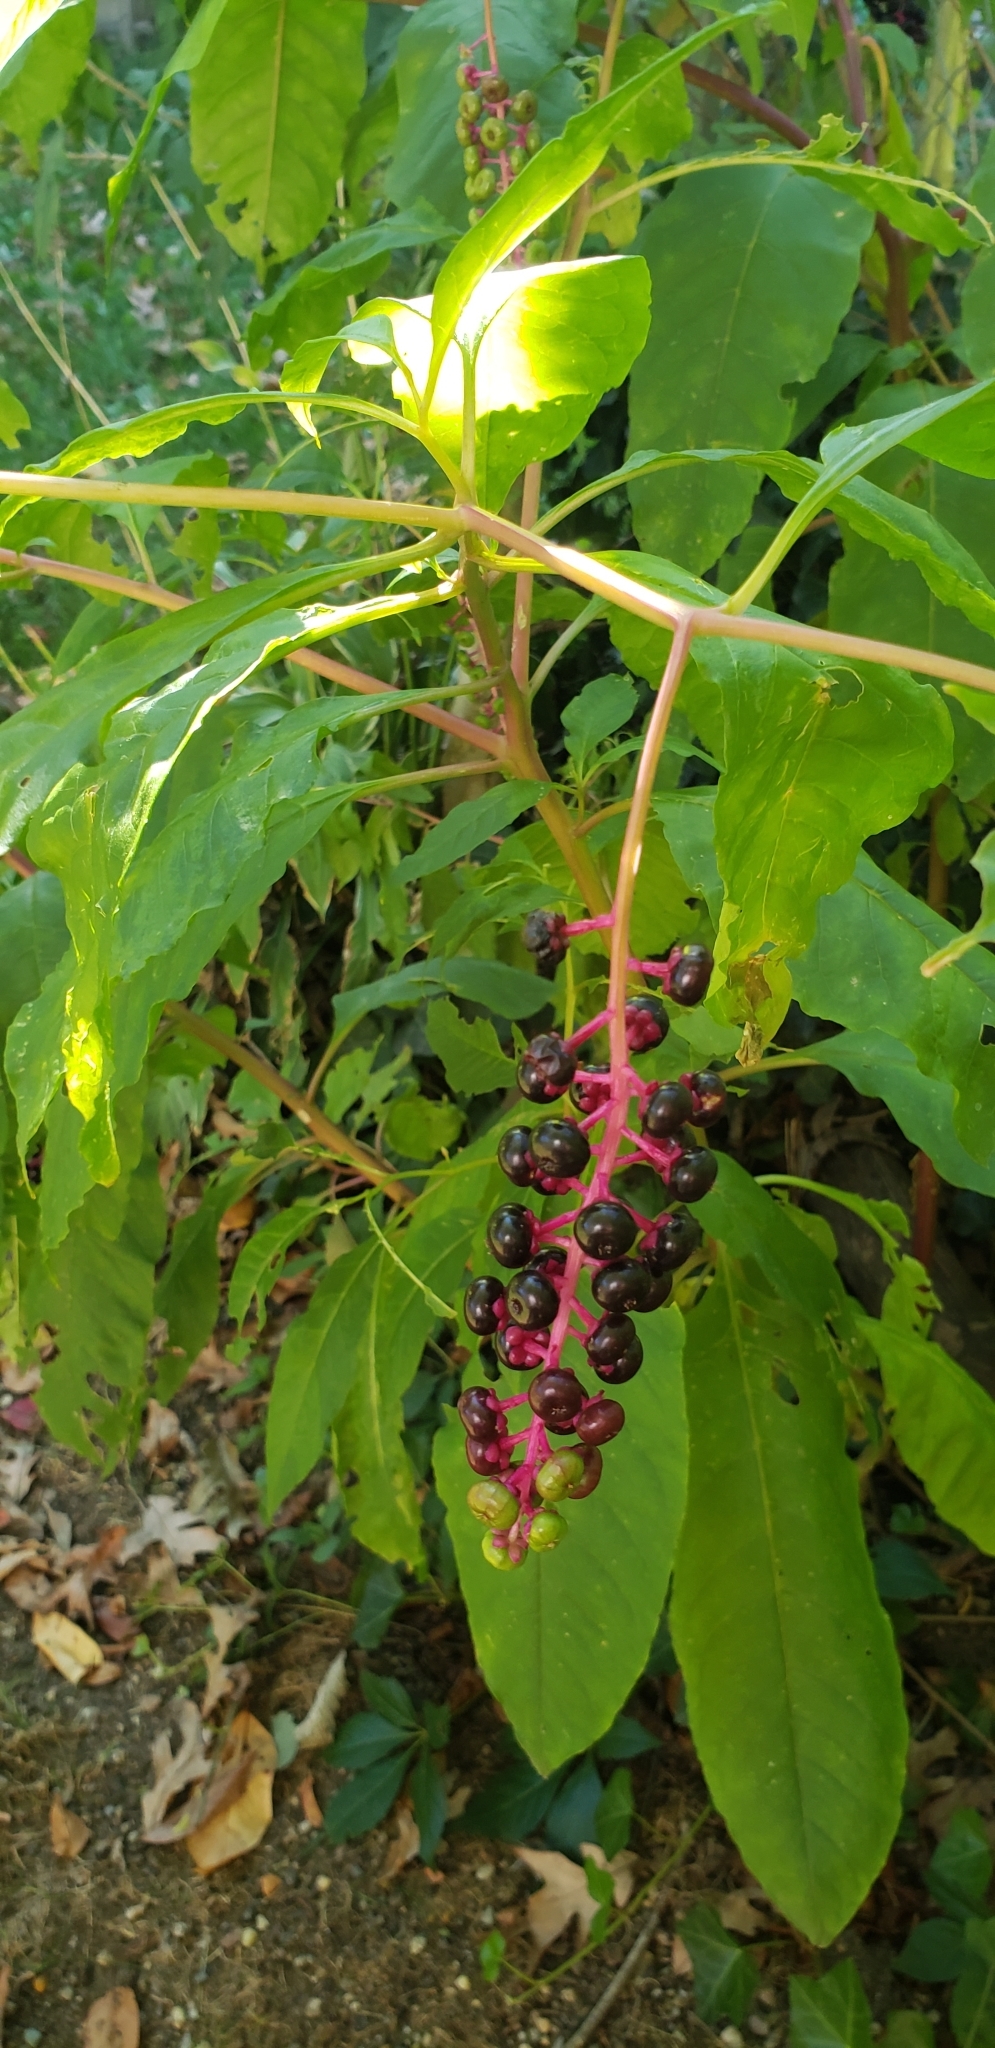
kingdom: Plantae
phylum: Tracheophyta
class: Magnoliopsida
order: Caryophyllales
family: Phytolaccaceae
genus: Phytolacca
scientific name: Phytolacca americana
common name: American pokeweed
